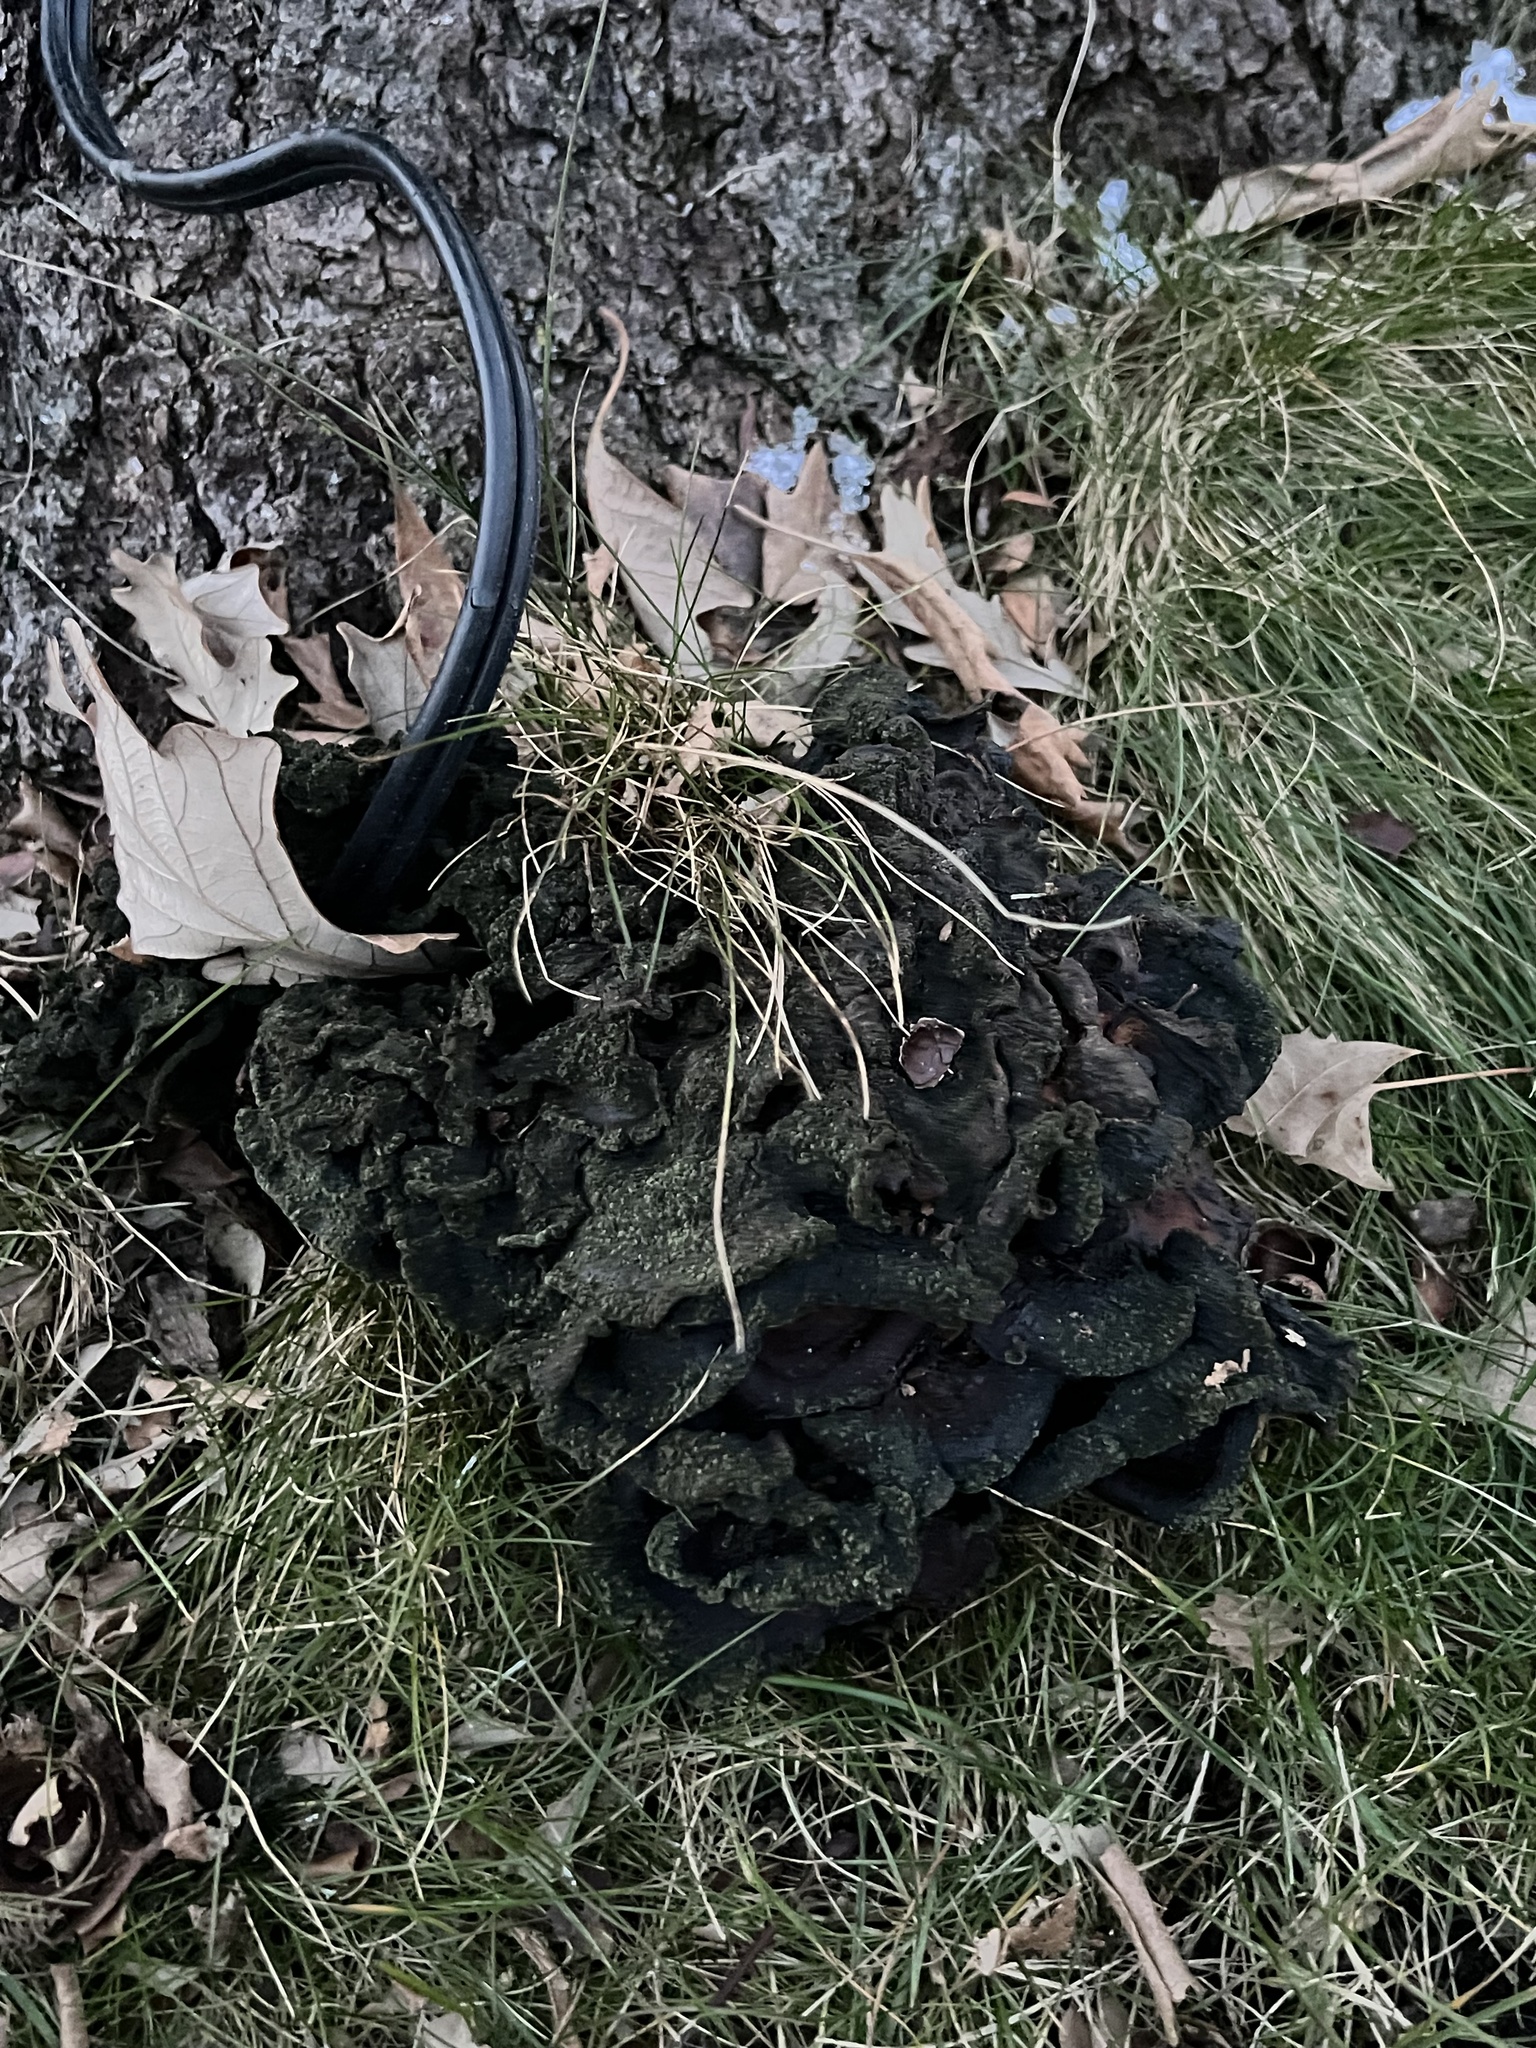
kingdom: Fungi
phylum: Basidiomycota
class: Agaricomycetes
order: Polyporales
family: Meripilaceae
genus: Meripilus
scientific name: Meripilus sumstinei
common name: Black-staining polypore
